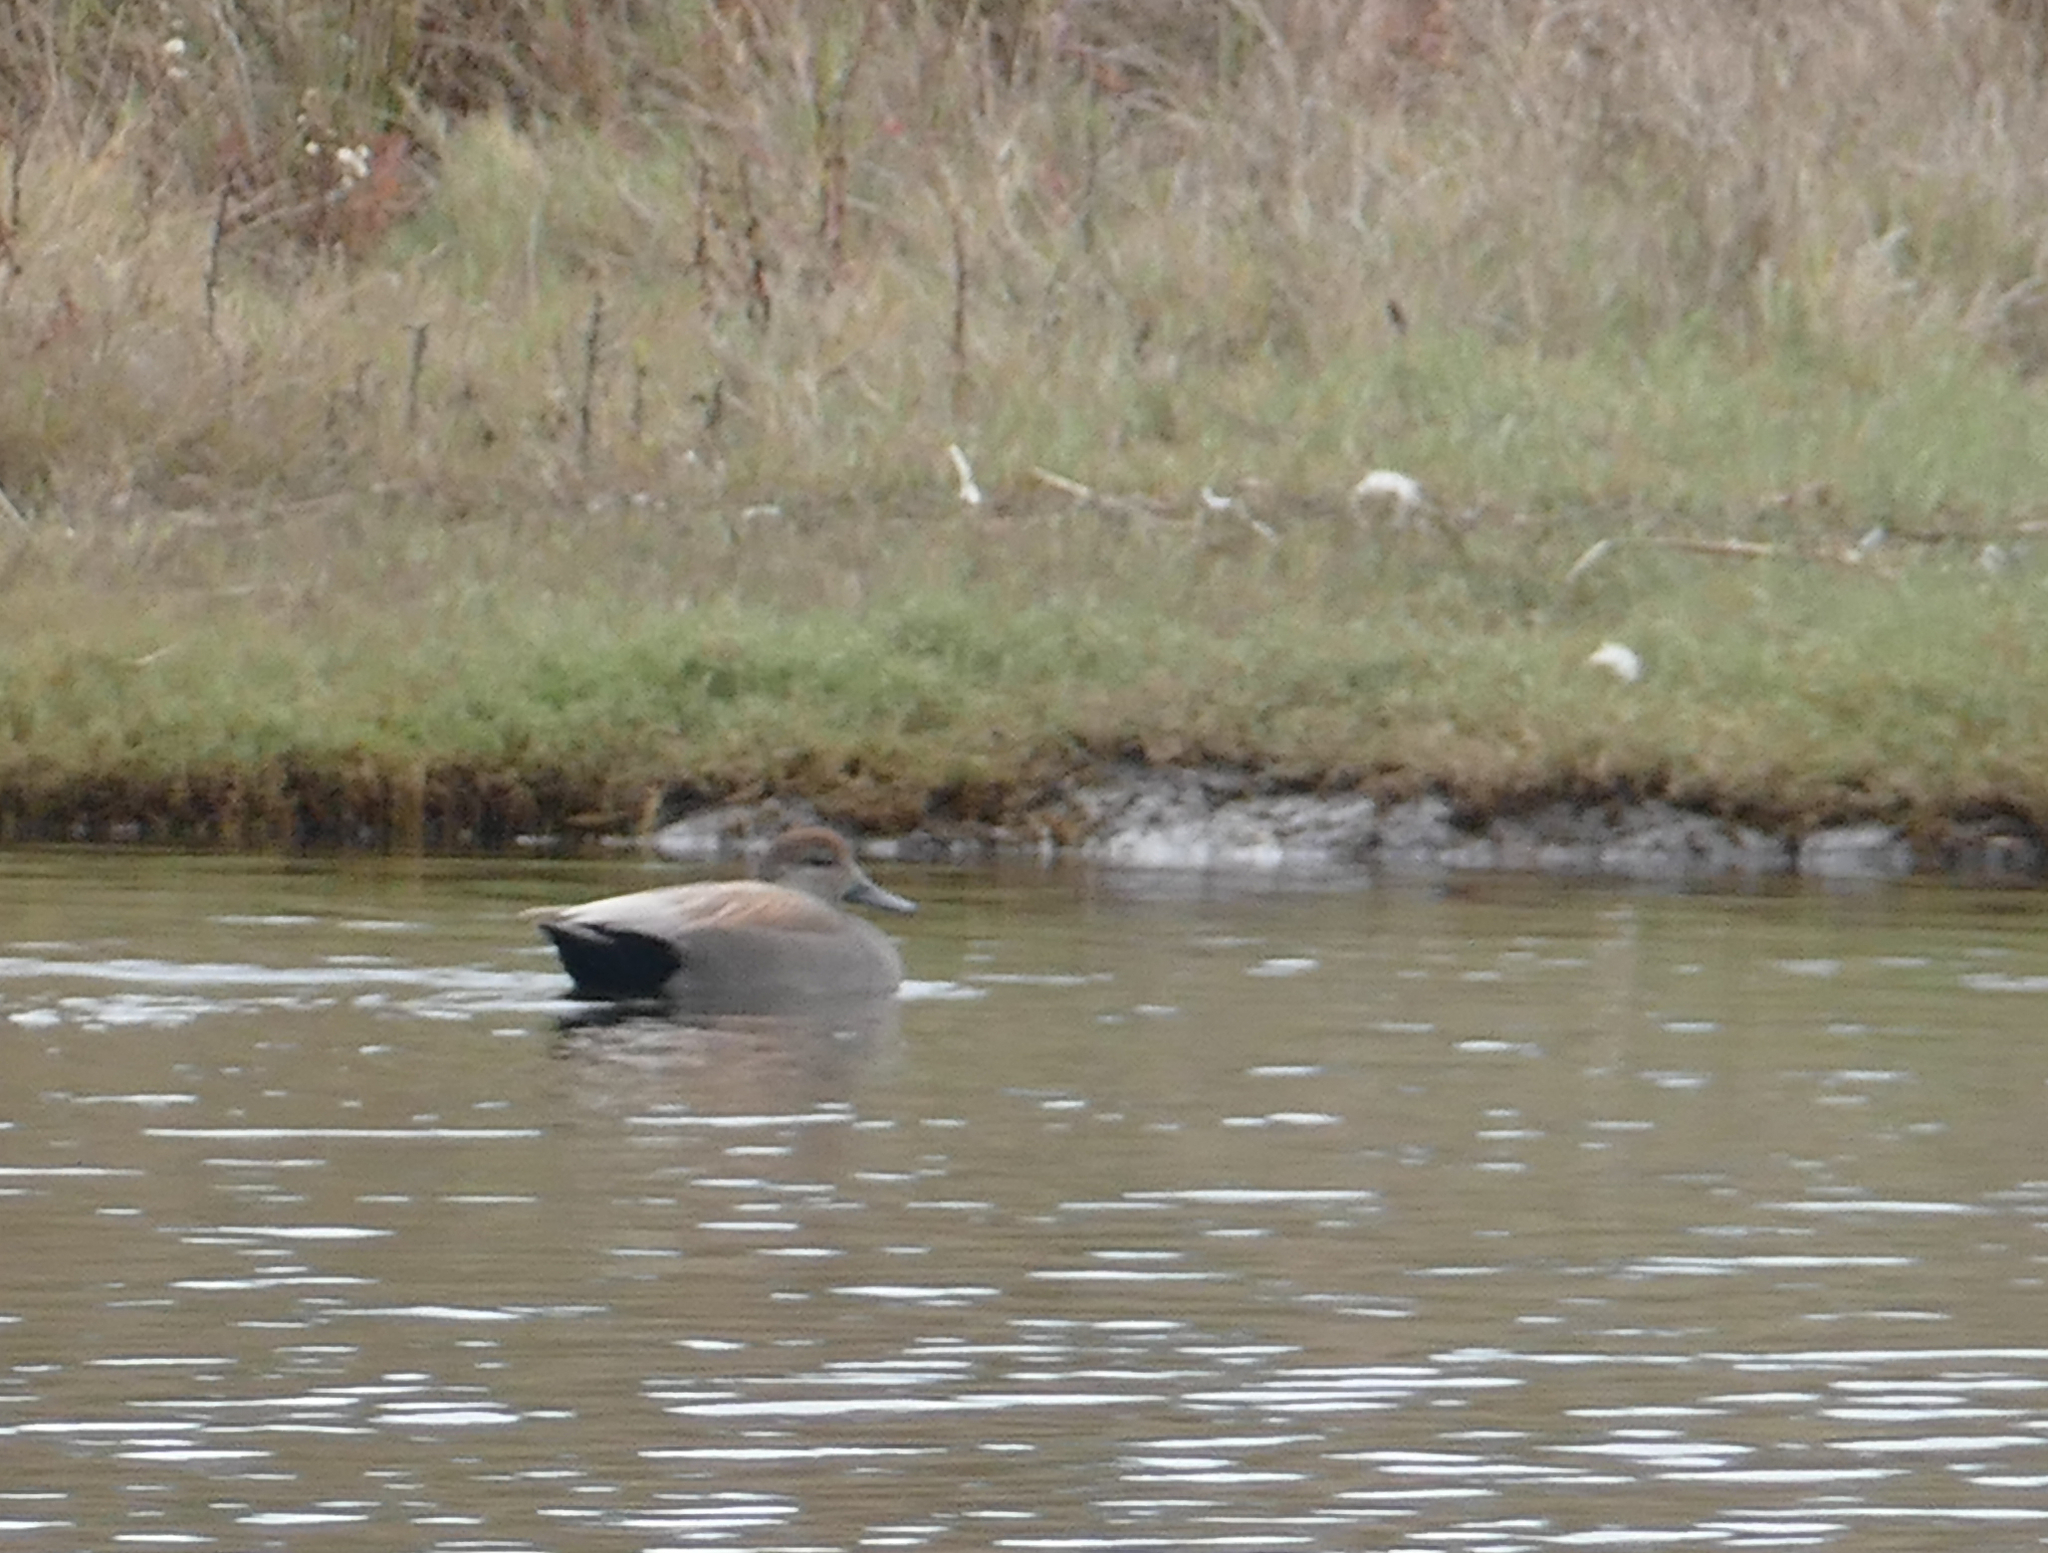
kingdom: Animalia
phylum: Chordata
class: Aves
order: Anseriformes
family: Anatidae
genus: Mareca
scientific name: Mareca strepera
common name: Gadwall
